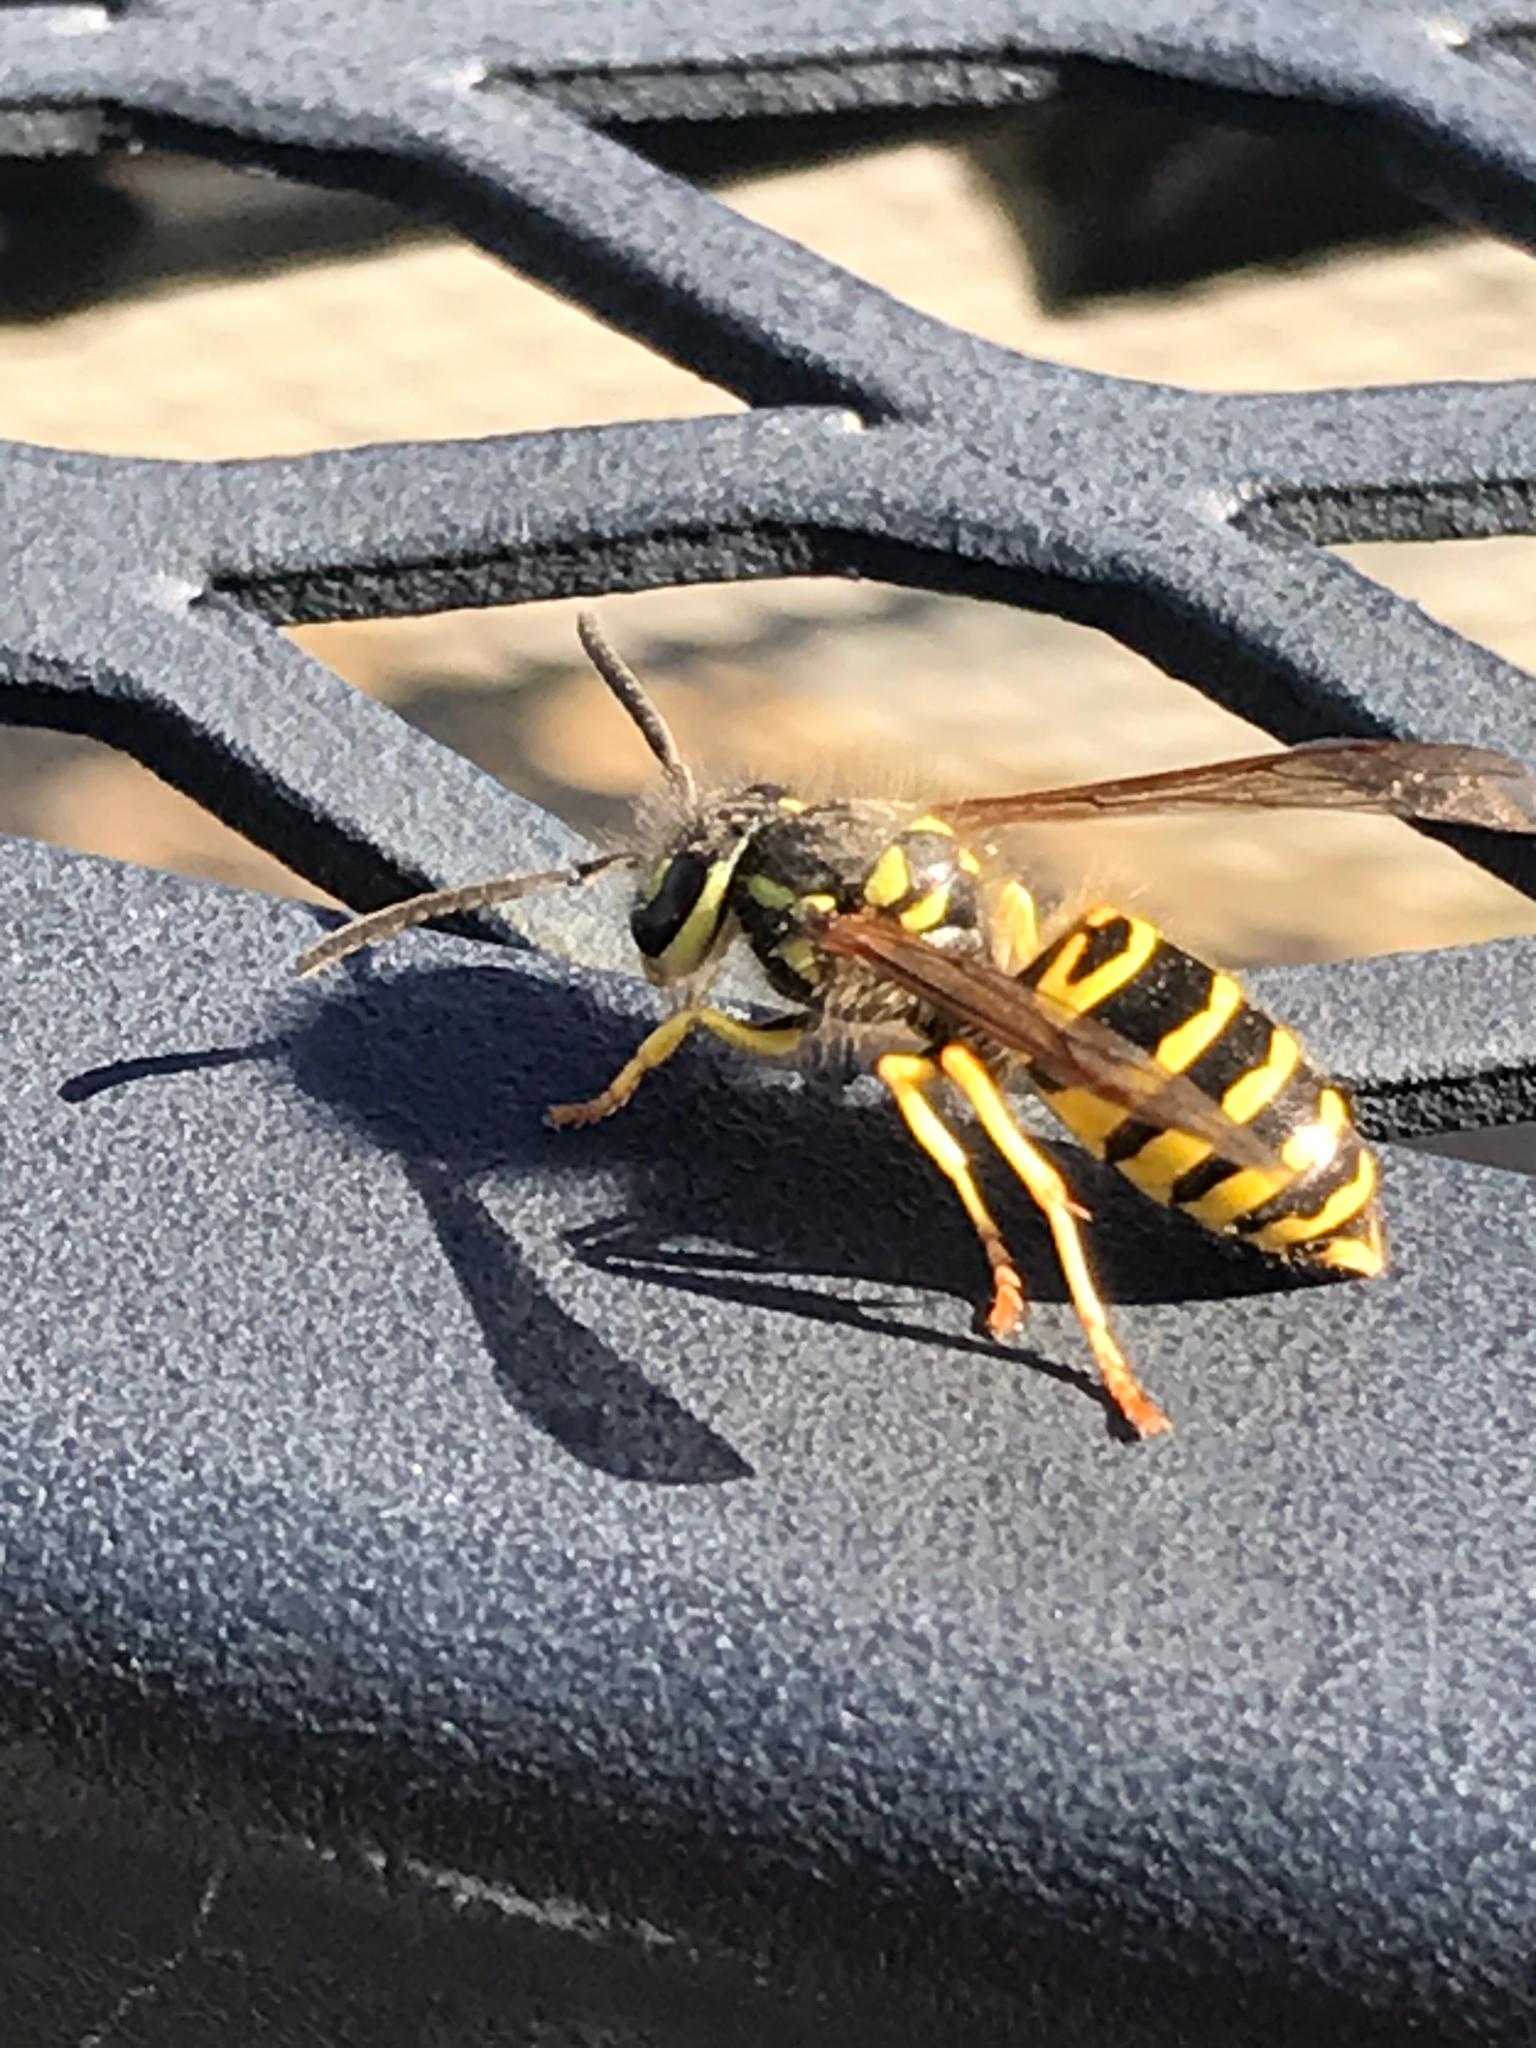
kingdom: Animalia
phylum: Arthropoda
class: Insecta
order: Hymenoptera
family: Vespidae
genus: Vespula
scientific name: Vespula maculifrons
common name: Eastern yellowjacket
